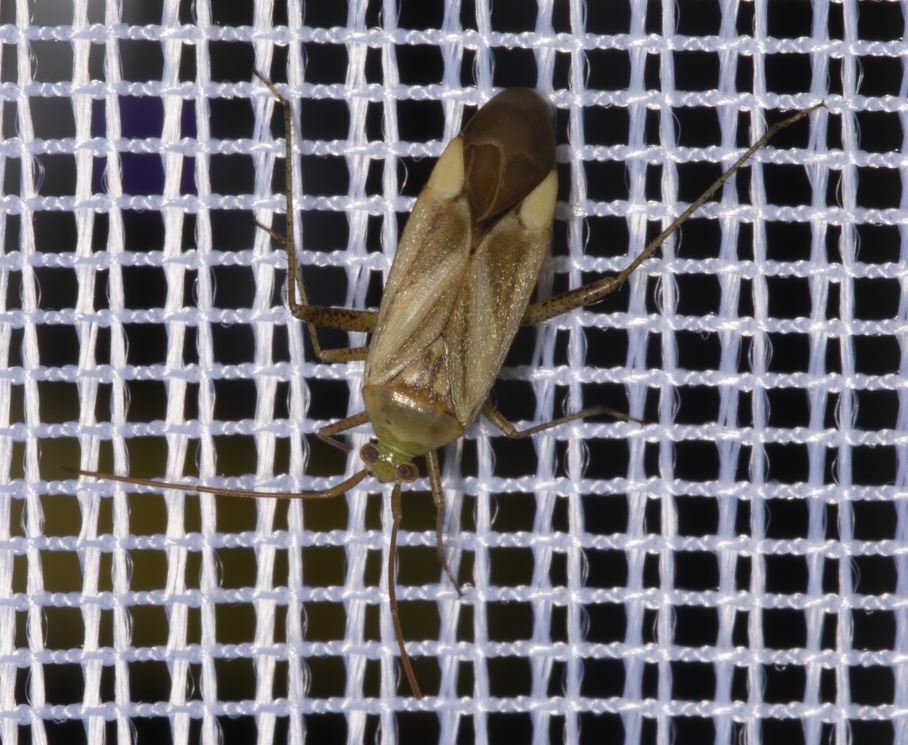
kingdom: Animalia
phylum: Arthropoda
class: Insecta
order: Hemiptera
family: Miridae
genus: Adelphocoris
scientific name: Adelphocoris lineolatus
